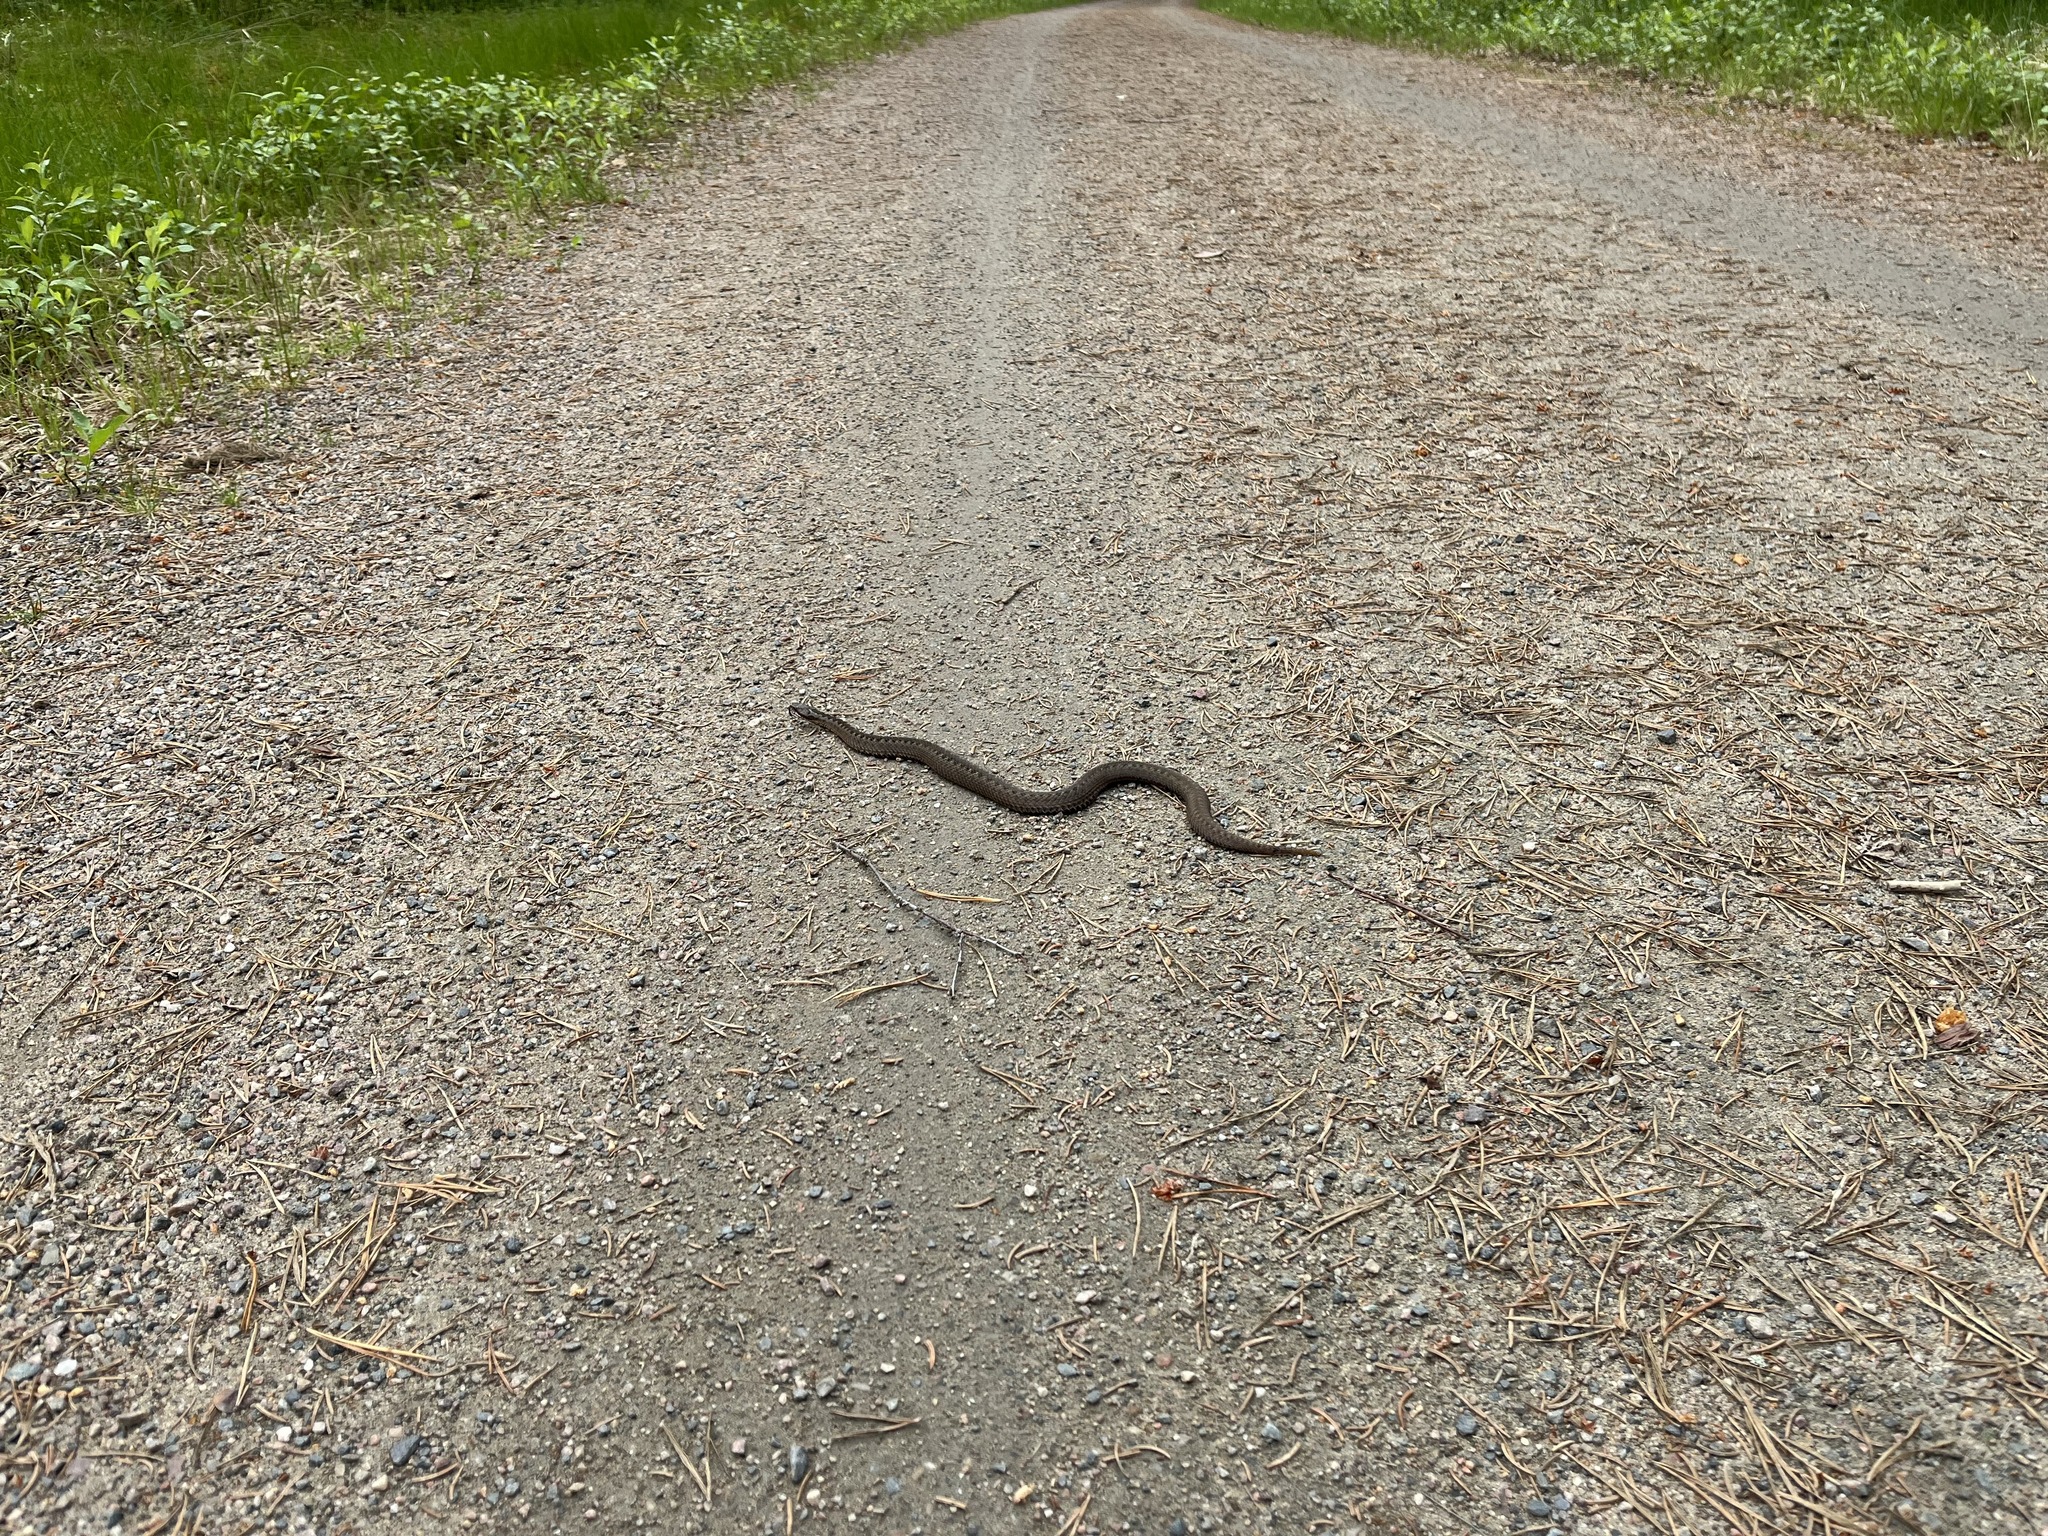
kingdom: Animalia
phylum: Chordata
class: Squamata
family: Viperidae
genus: Vipera
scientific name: Vipera berus
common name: Adder
